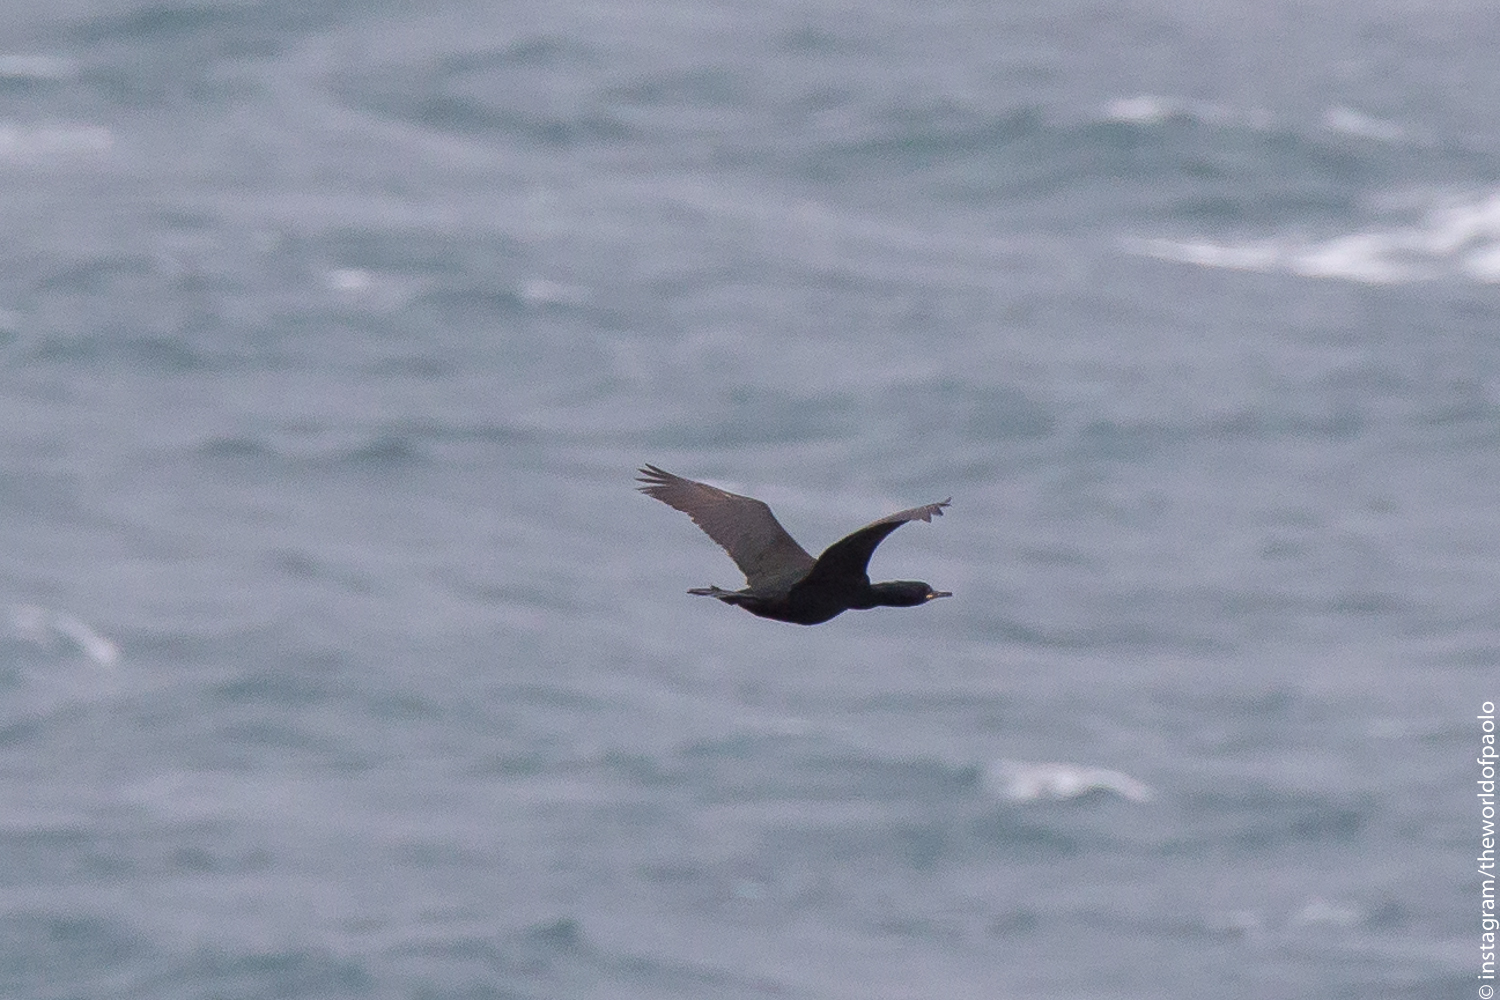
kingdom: Animalia
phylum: Chordata
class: Aves
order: Suliformes
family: Phalacrocoracidae
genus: Phalacrocorax
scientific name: Phalacrocorax aristotelis
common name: European shag
